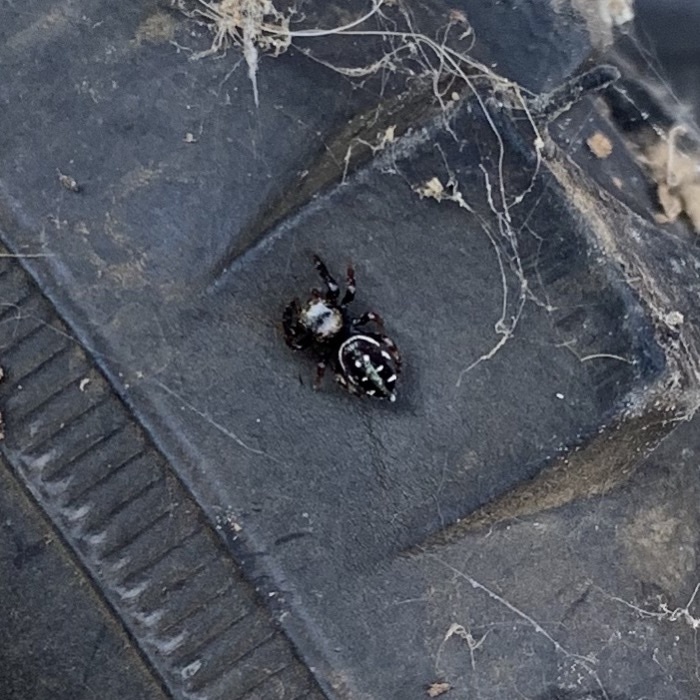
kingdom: Animalia
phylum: Arthropoda
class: Arachnida
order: Araneae
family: Salticidae
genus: Paraphidippus
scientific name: Paraphidippus aurantius
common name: Jumping spiders
